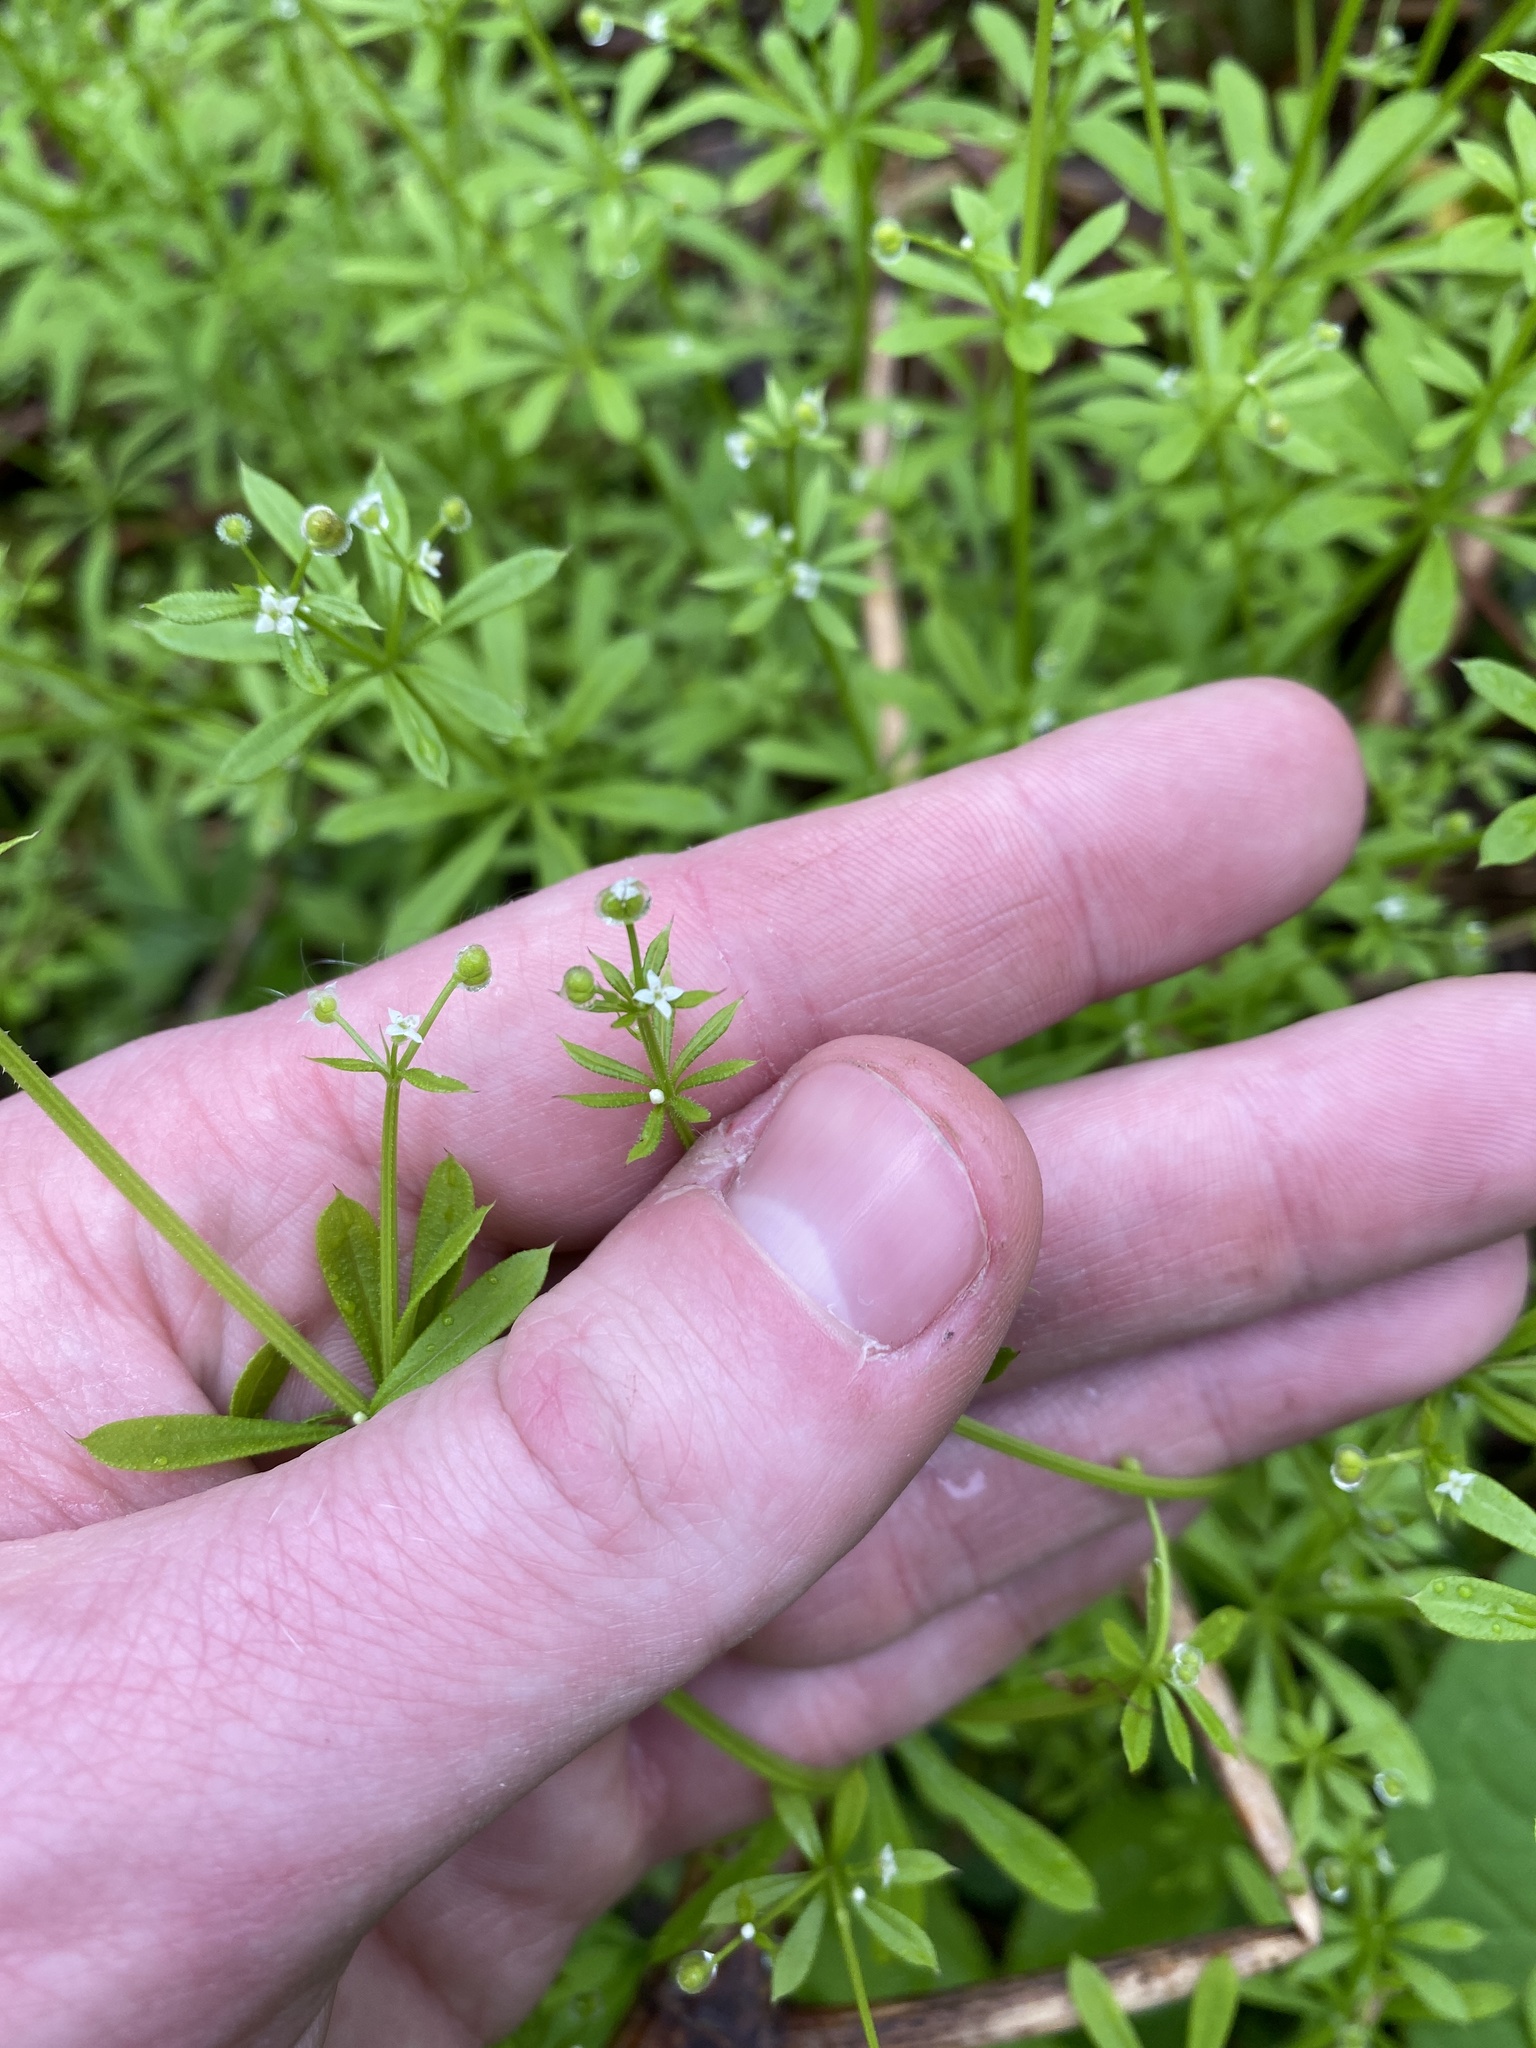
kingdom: Plantae
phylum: Tracheophyta
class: Magnoliopsida
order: Gentianales
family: Rubiaceae
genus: Galium
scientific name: Galium aparine
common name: Cleavers
